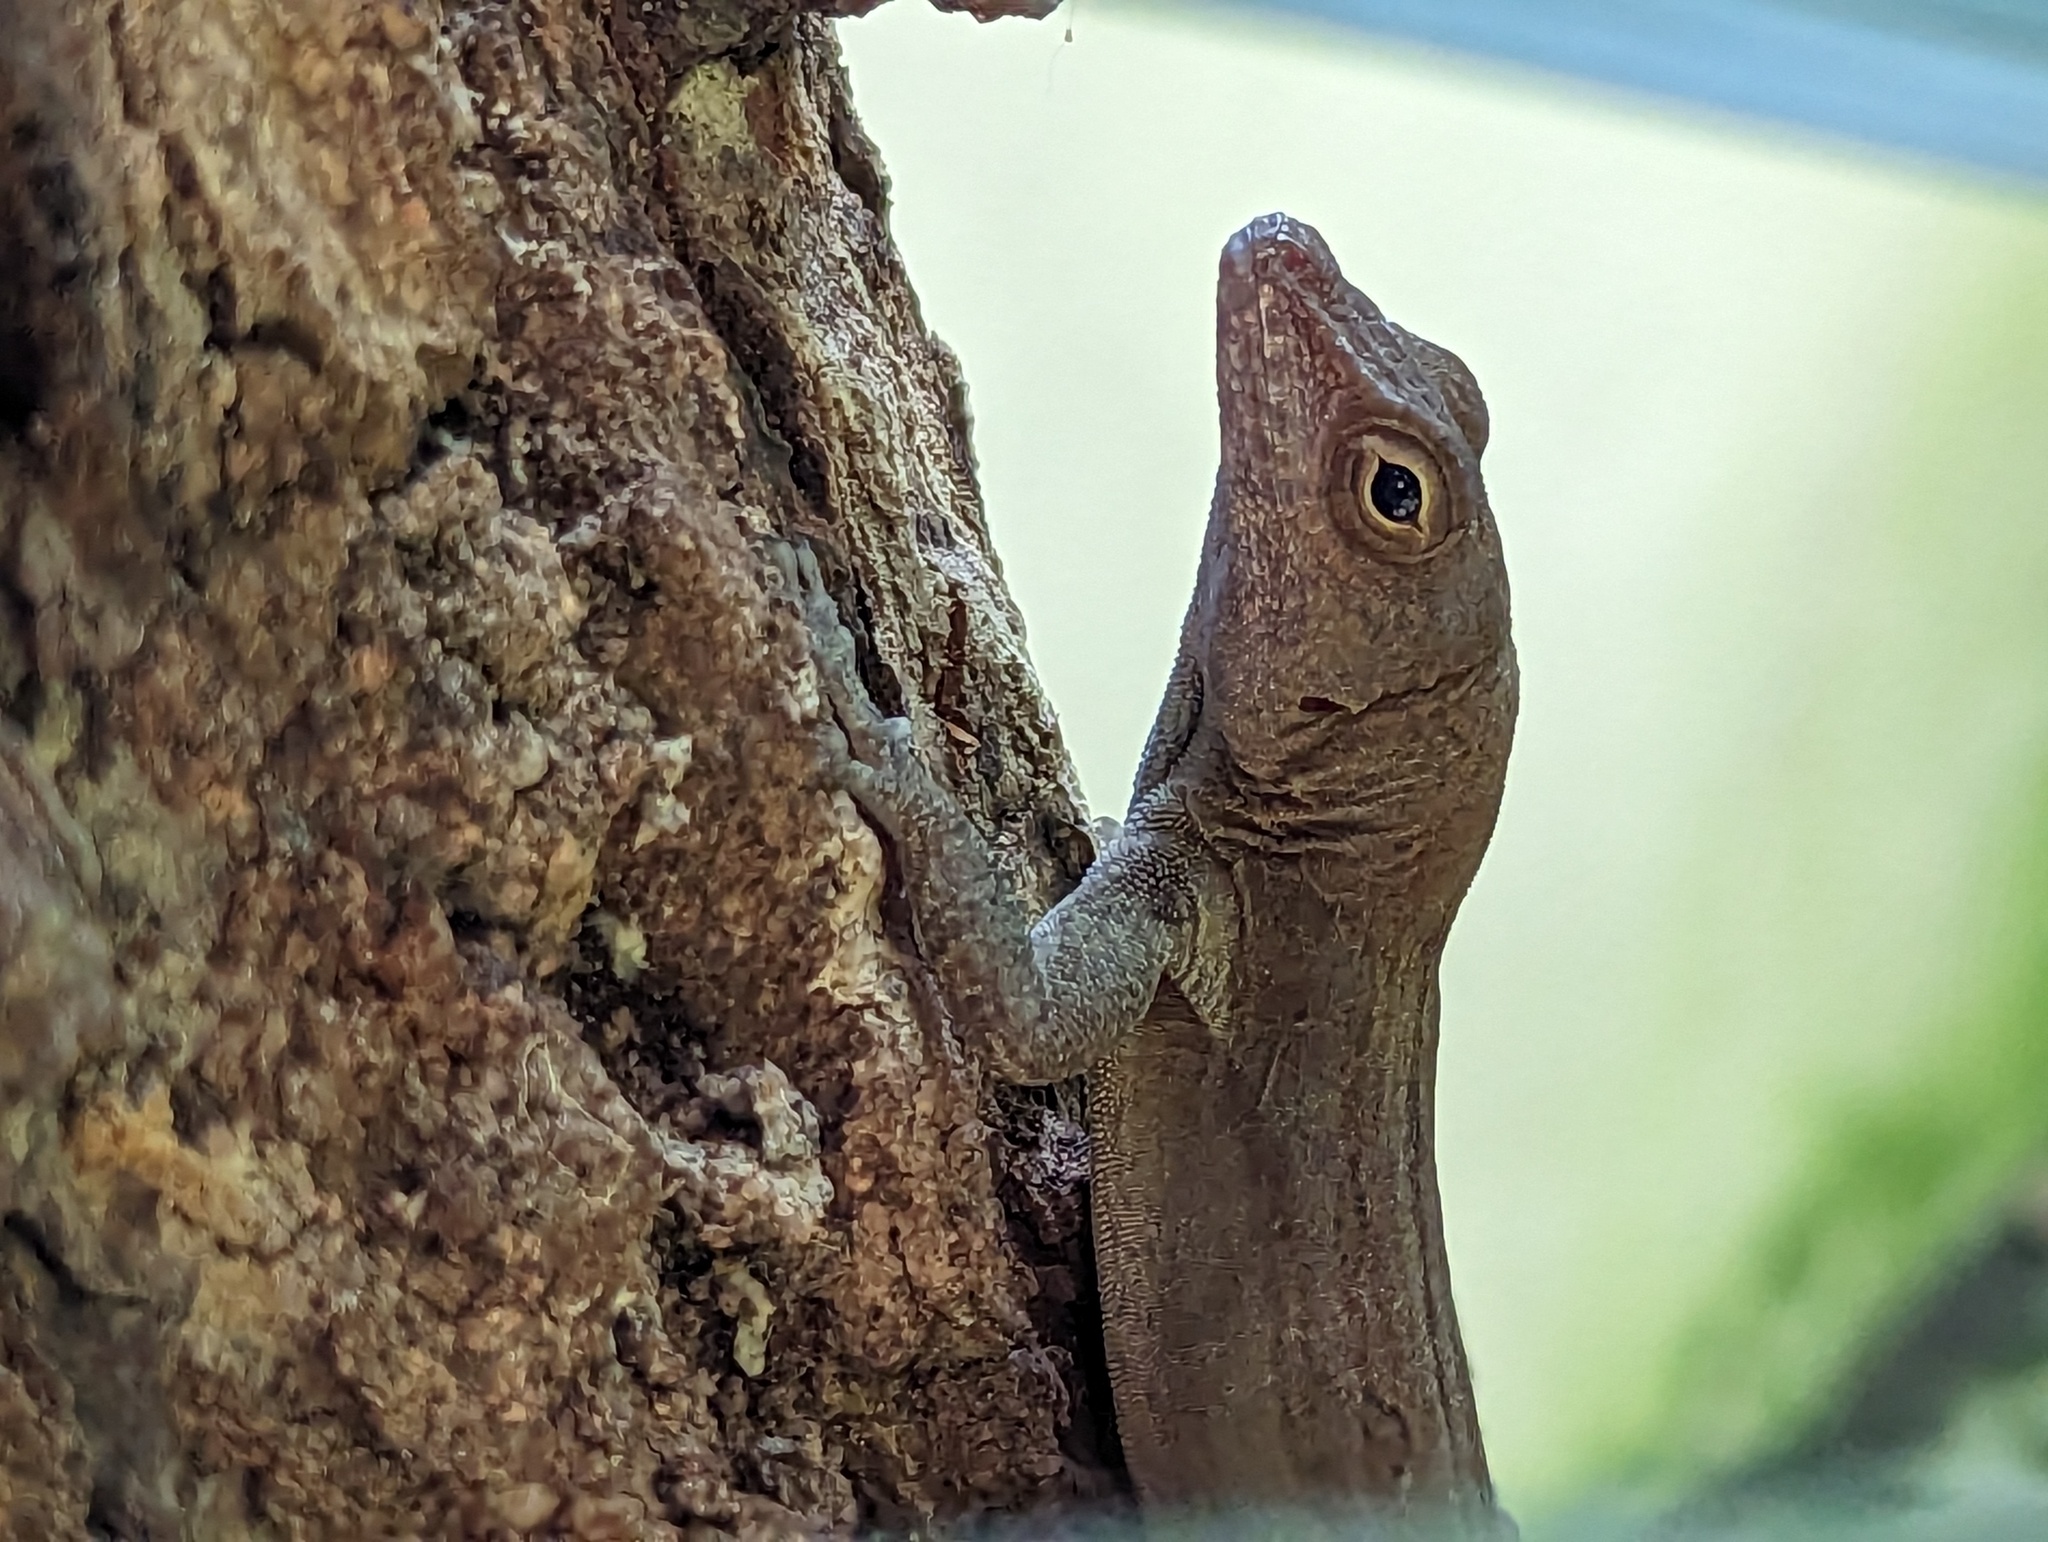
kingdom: Animalia
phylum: Chordata
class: Squamata
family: Dactyloidae
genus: Anolis
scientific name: Anolis cristatellus
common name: Crested anole
